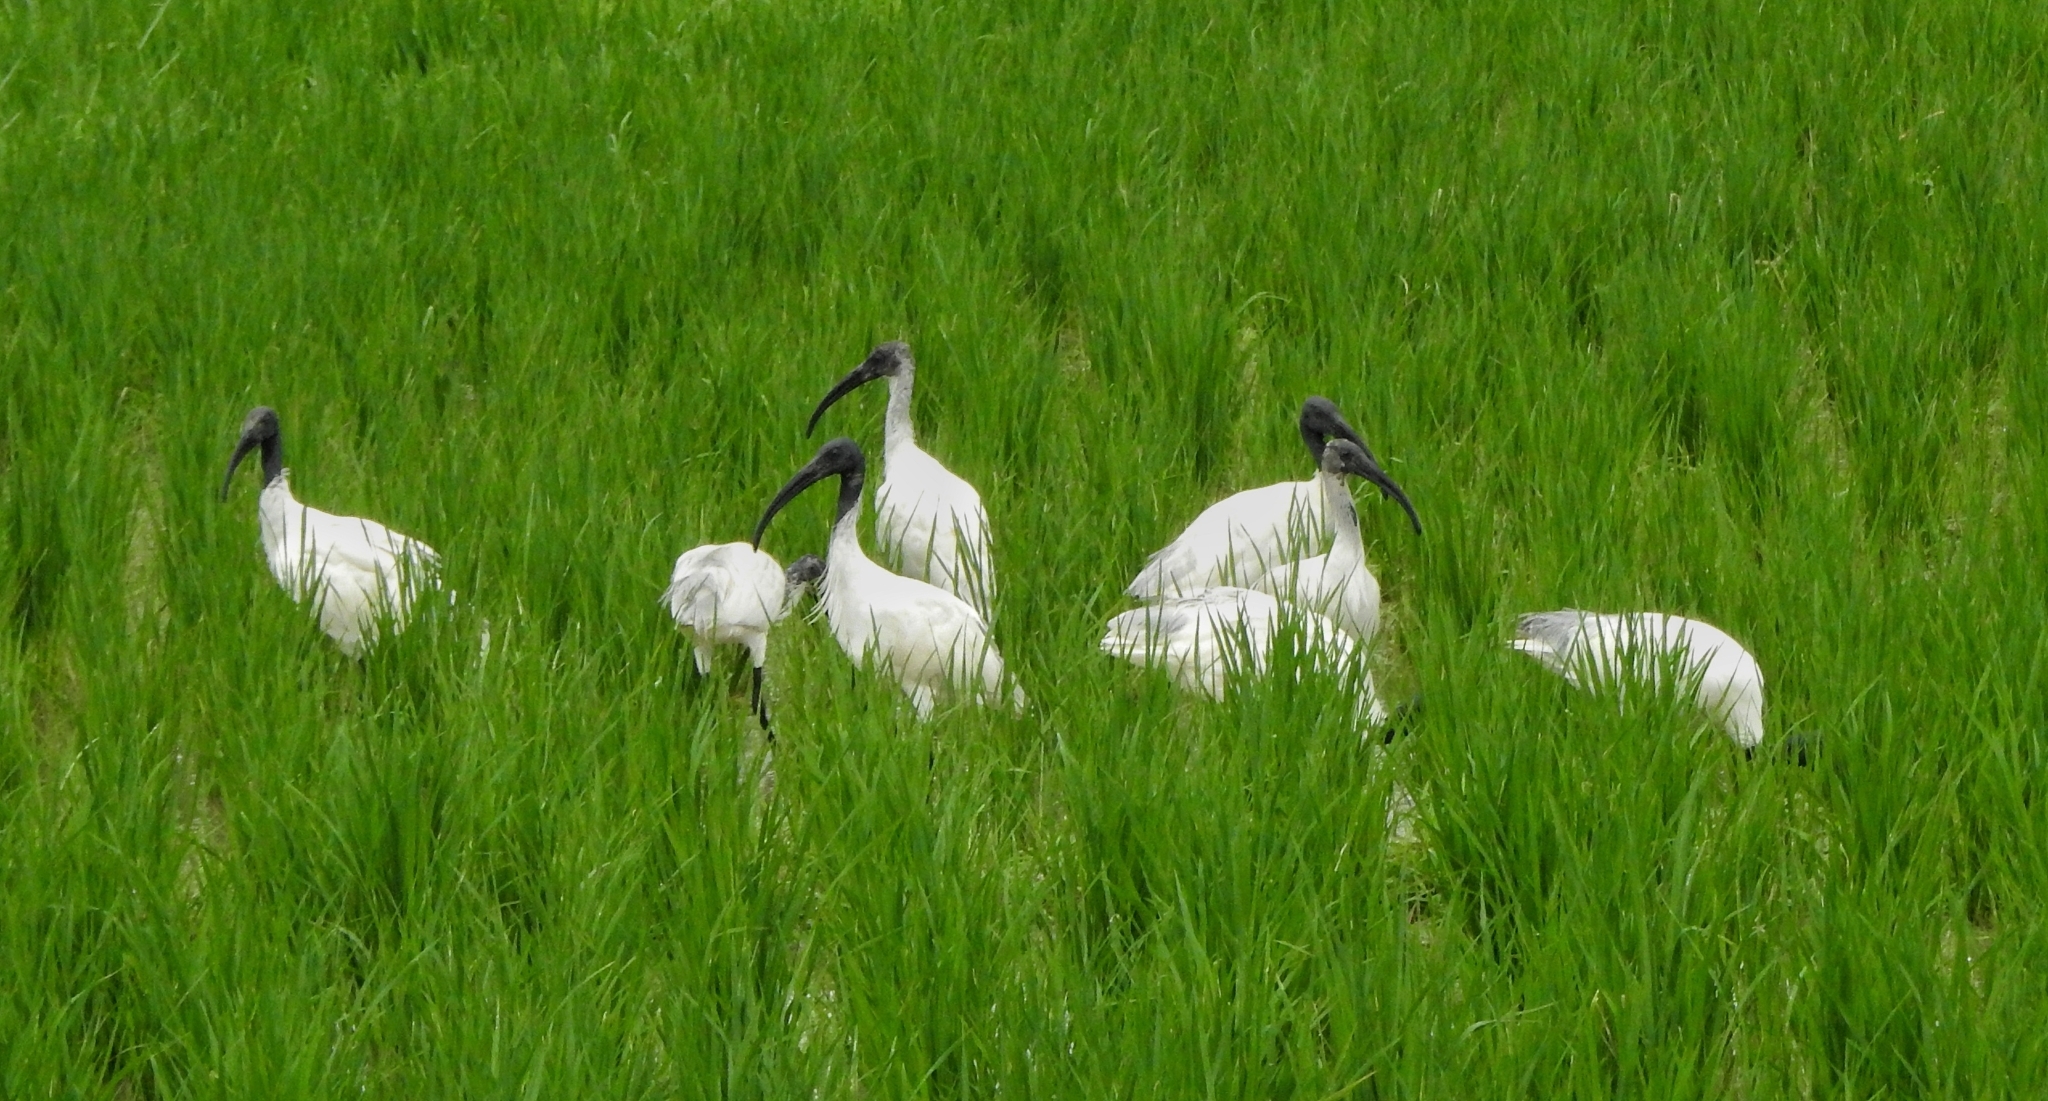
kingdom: Animalia
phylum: Chordata
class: Aves
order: Pelecaniformes
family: Threskiornithidae
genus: Threskiornis
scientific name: Threskiornis melanocephalus
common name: Black-headed ibis
